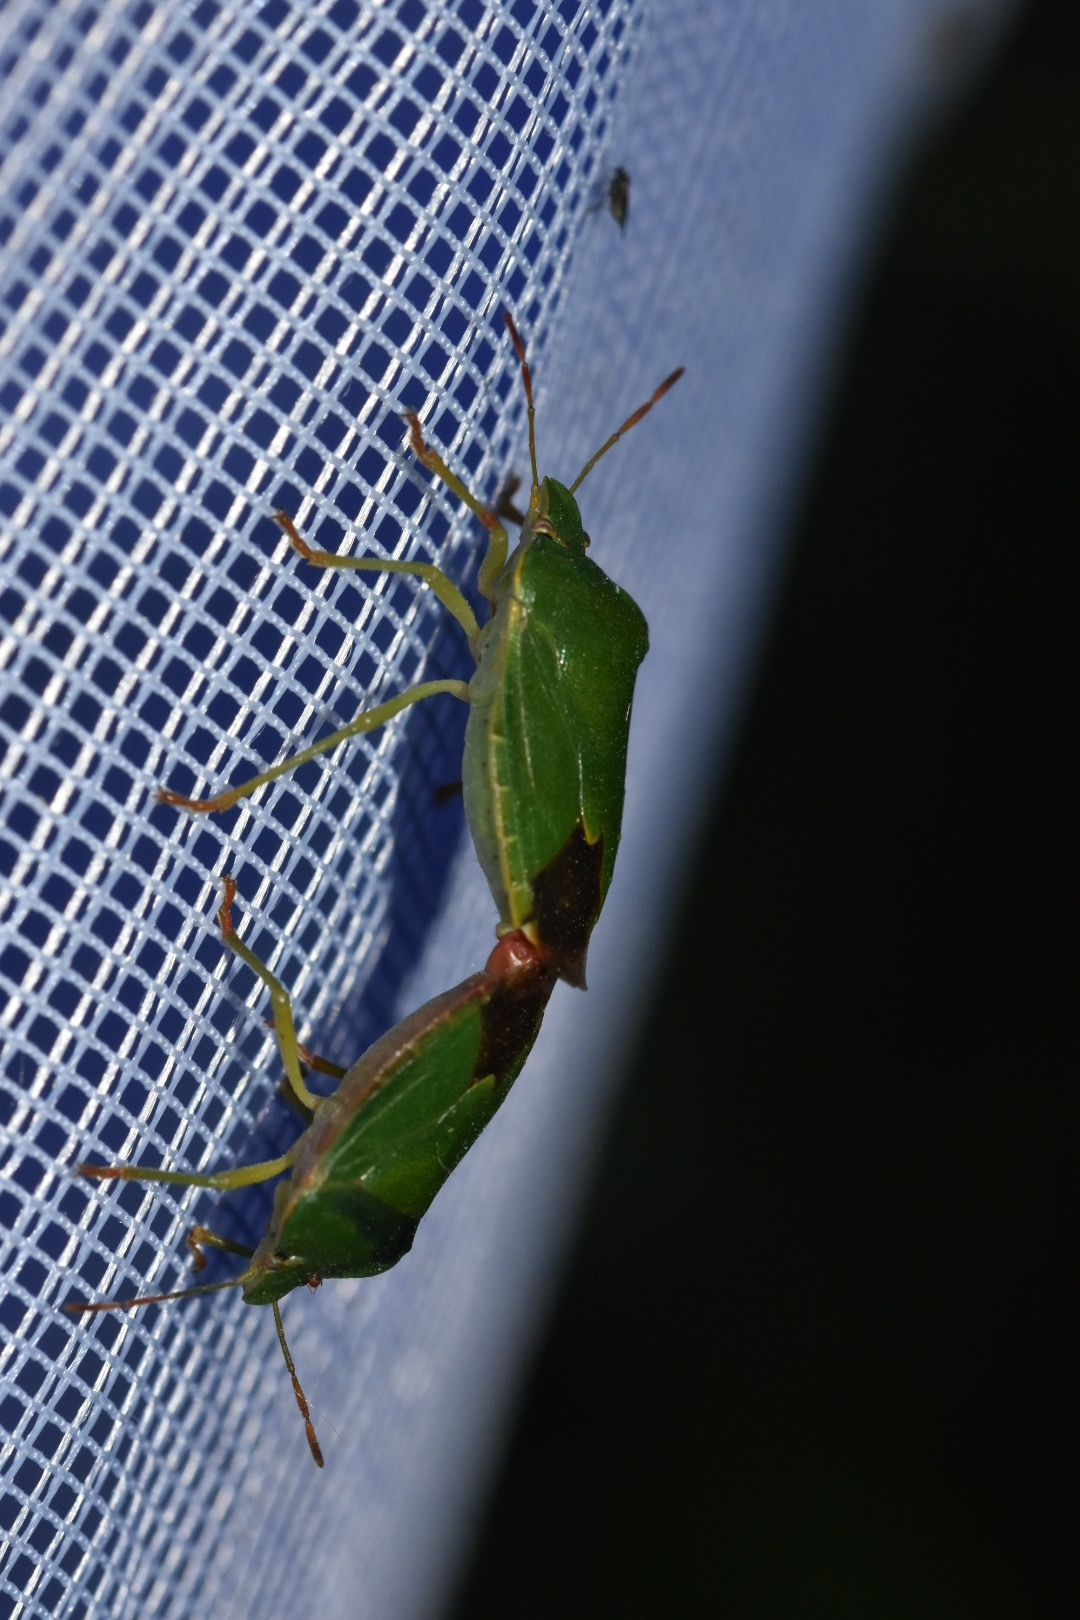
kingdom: Animalia
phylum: Arthropoda
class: Insecta
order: Hemiptera
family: Pentatomidae
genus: Palomena
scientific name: Palomena prasina
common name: Green shieldbug
